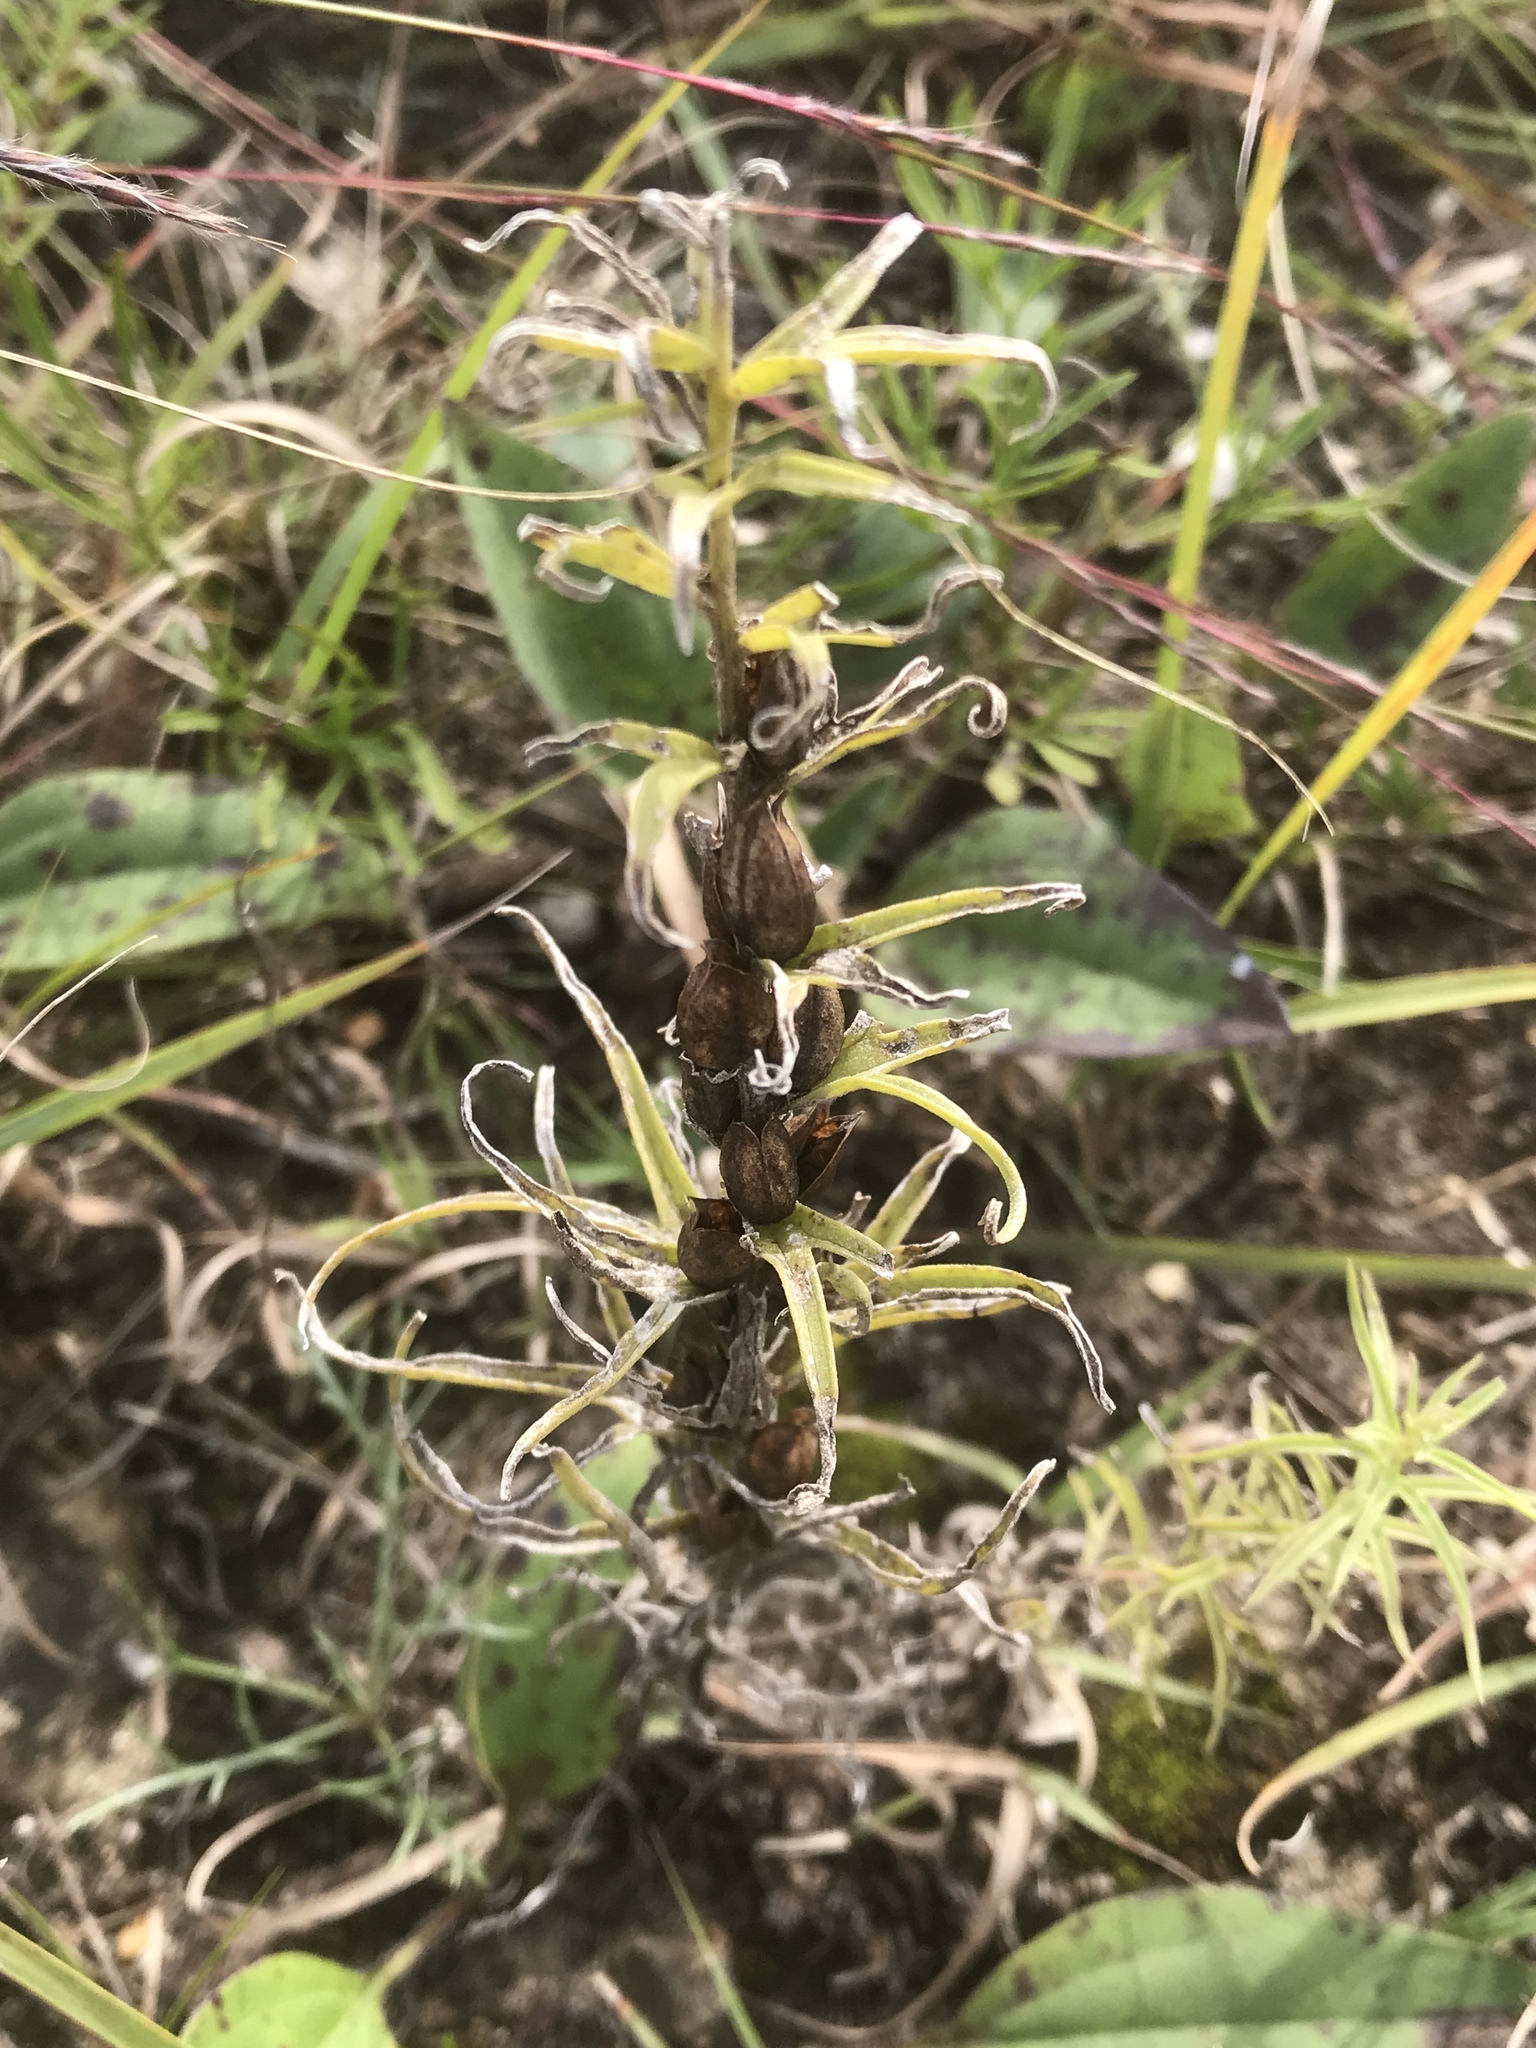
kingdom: Plantae
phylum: Tracheophyta
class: Magnoliopsida
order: Lamiales
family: Orobanchaceae
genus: Castilleja
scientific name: Castilleja sessiliflora
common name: Downy paintbrush
